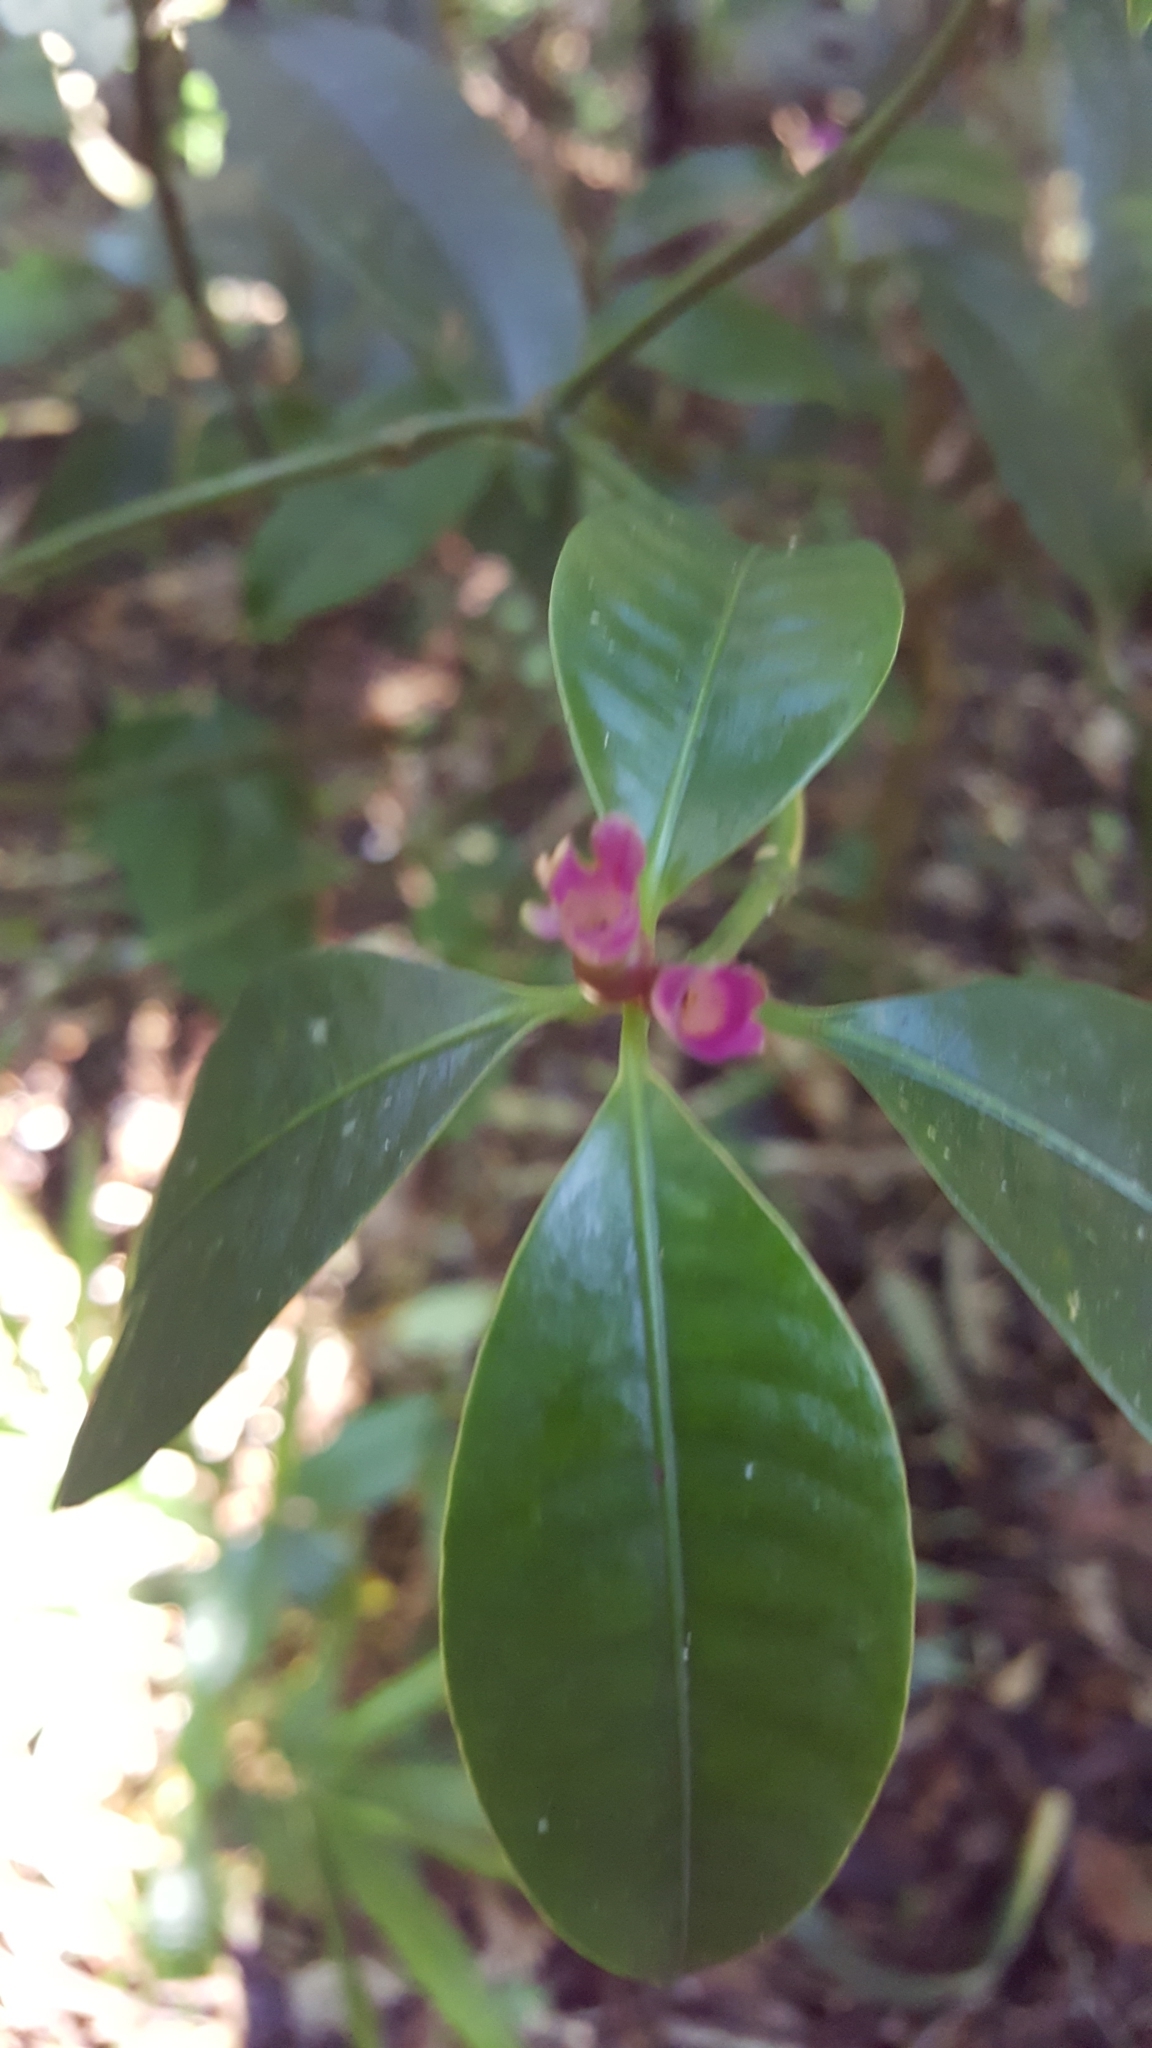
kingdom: Plantae
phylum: Tracheophyta
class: Magnoliopsida
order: Gentianales
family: Rubiaceae
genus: Psychotria
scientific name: Psychotria nuda
